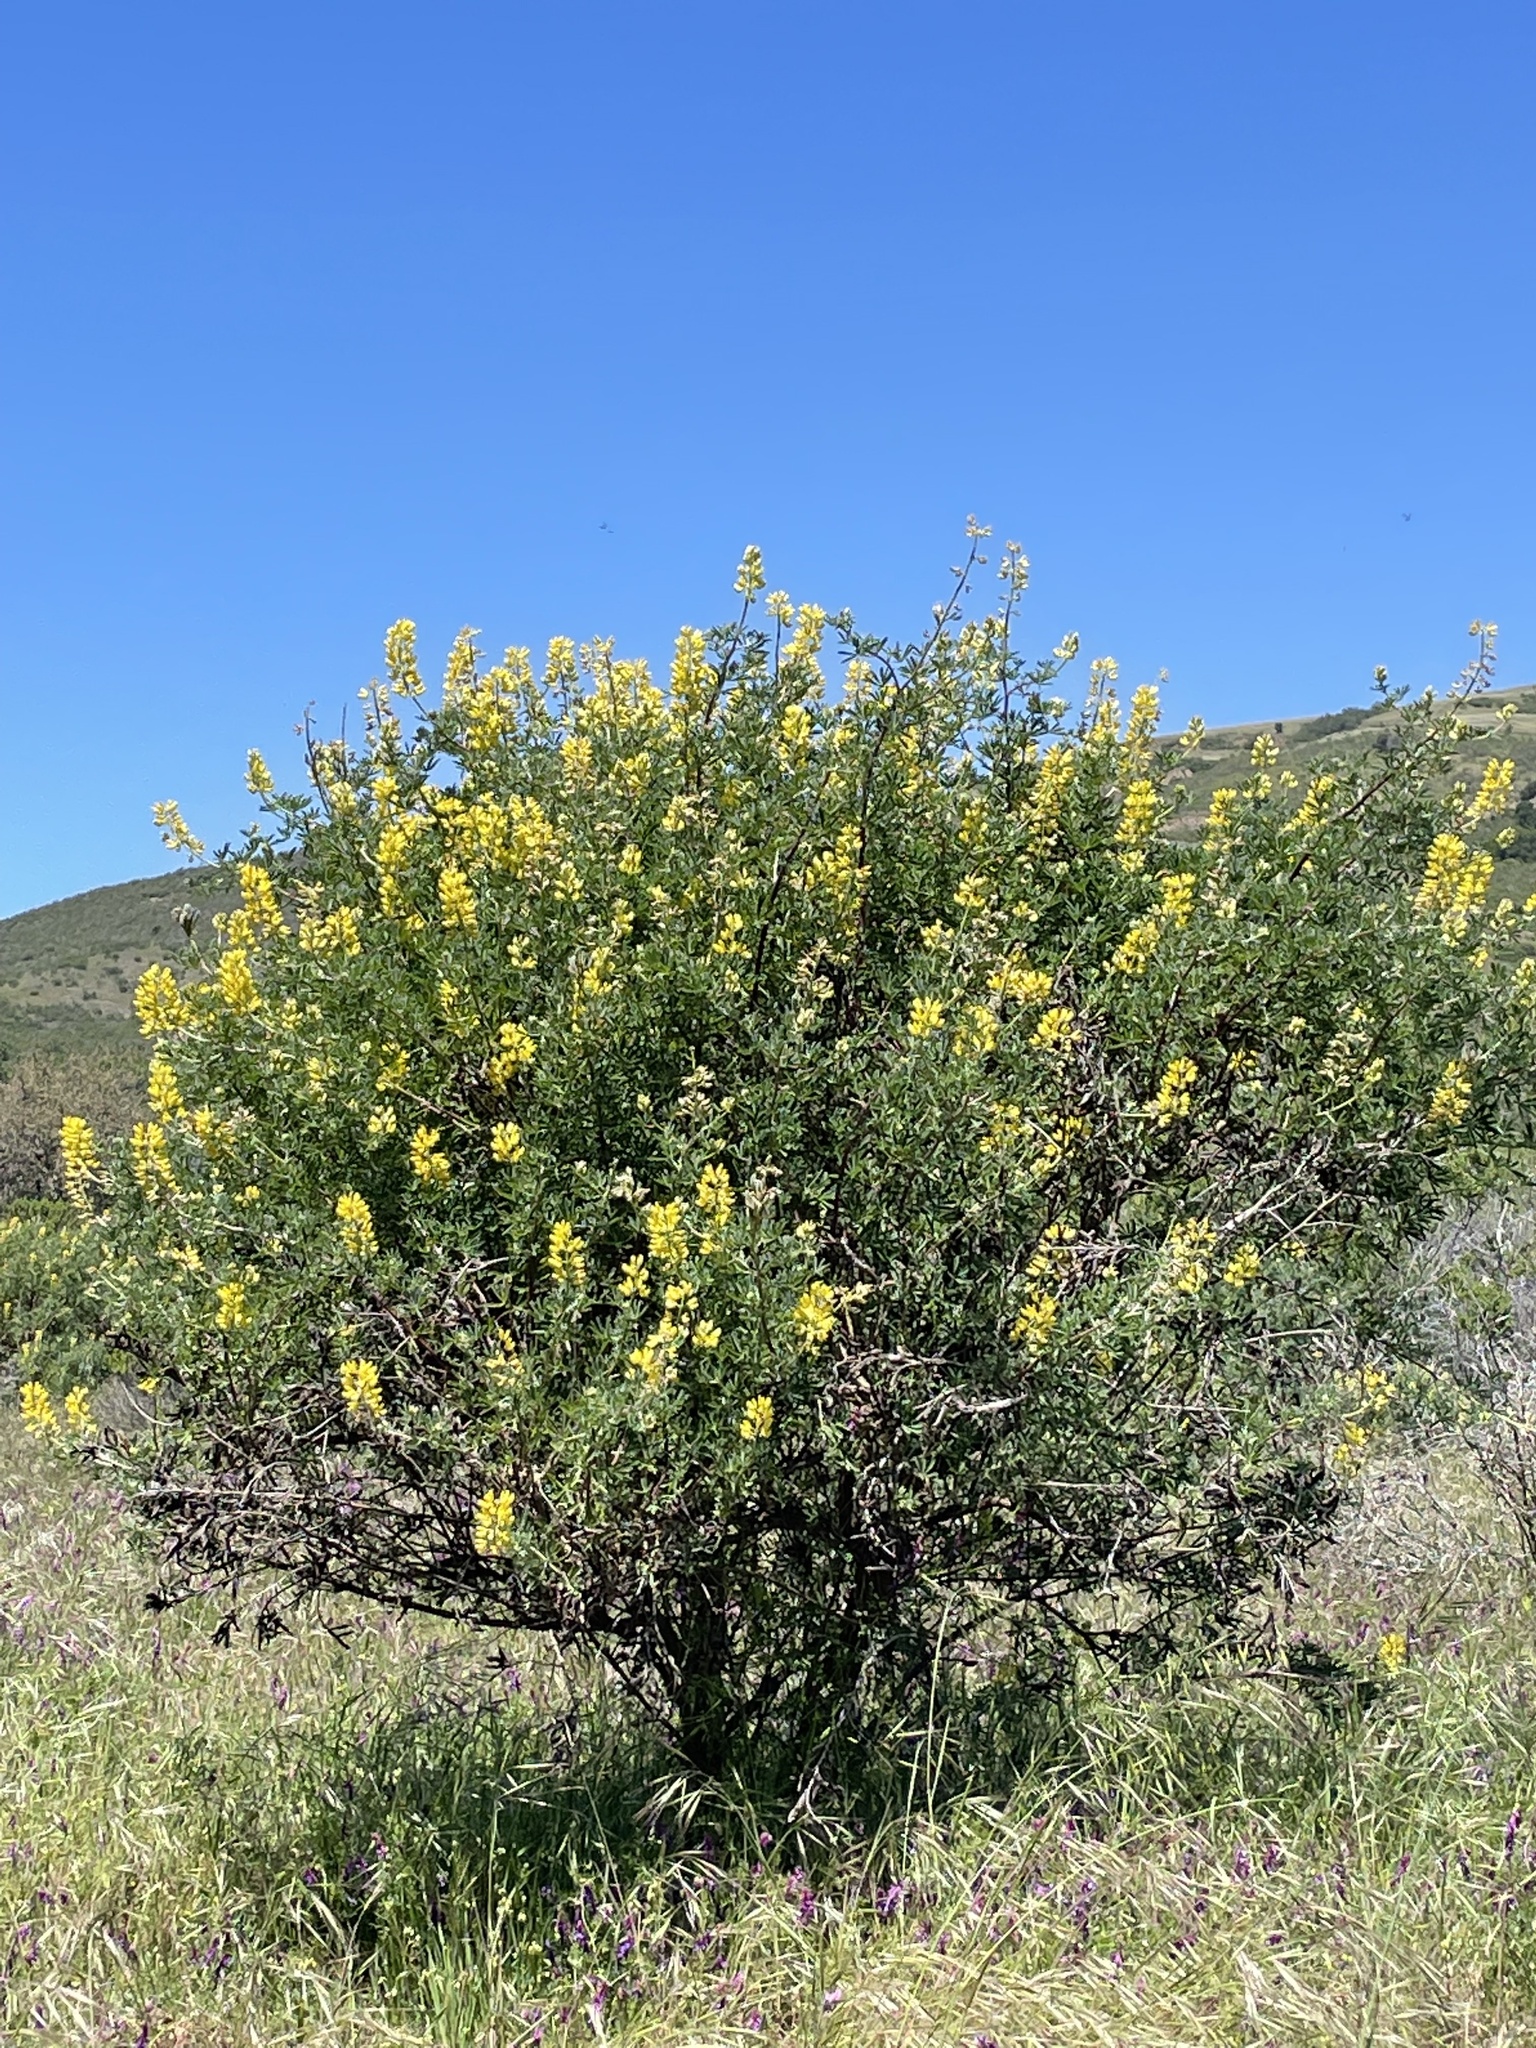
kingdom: Plantae
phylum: Tracheophyta
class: Magnoliopsida
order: Fabales
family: Fabaceae
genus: Lupinus
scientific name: Lupinus arboreus
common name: Yellow bush lupine
